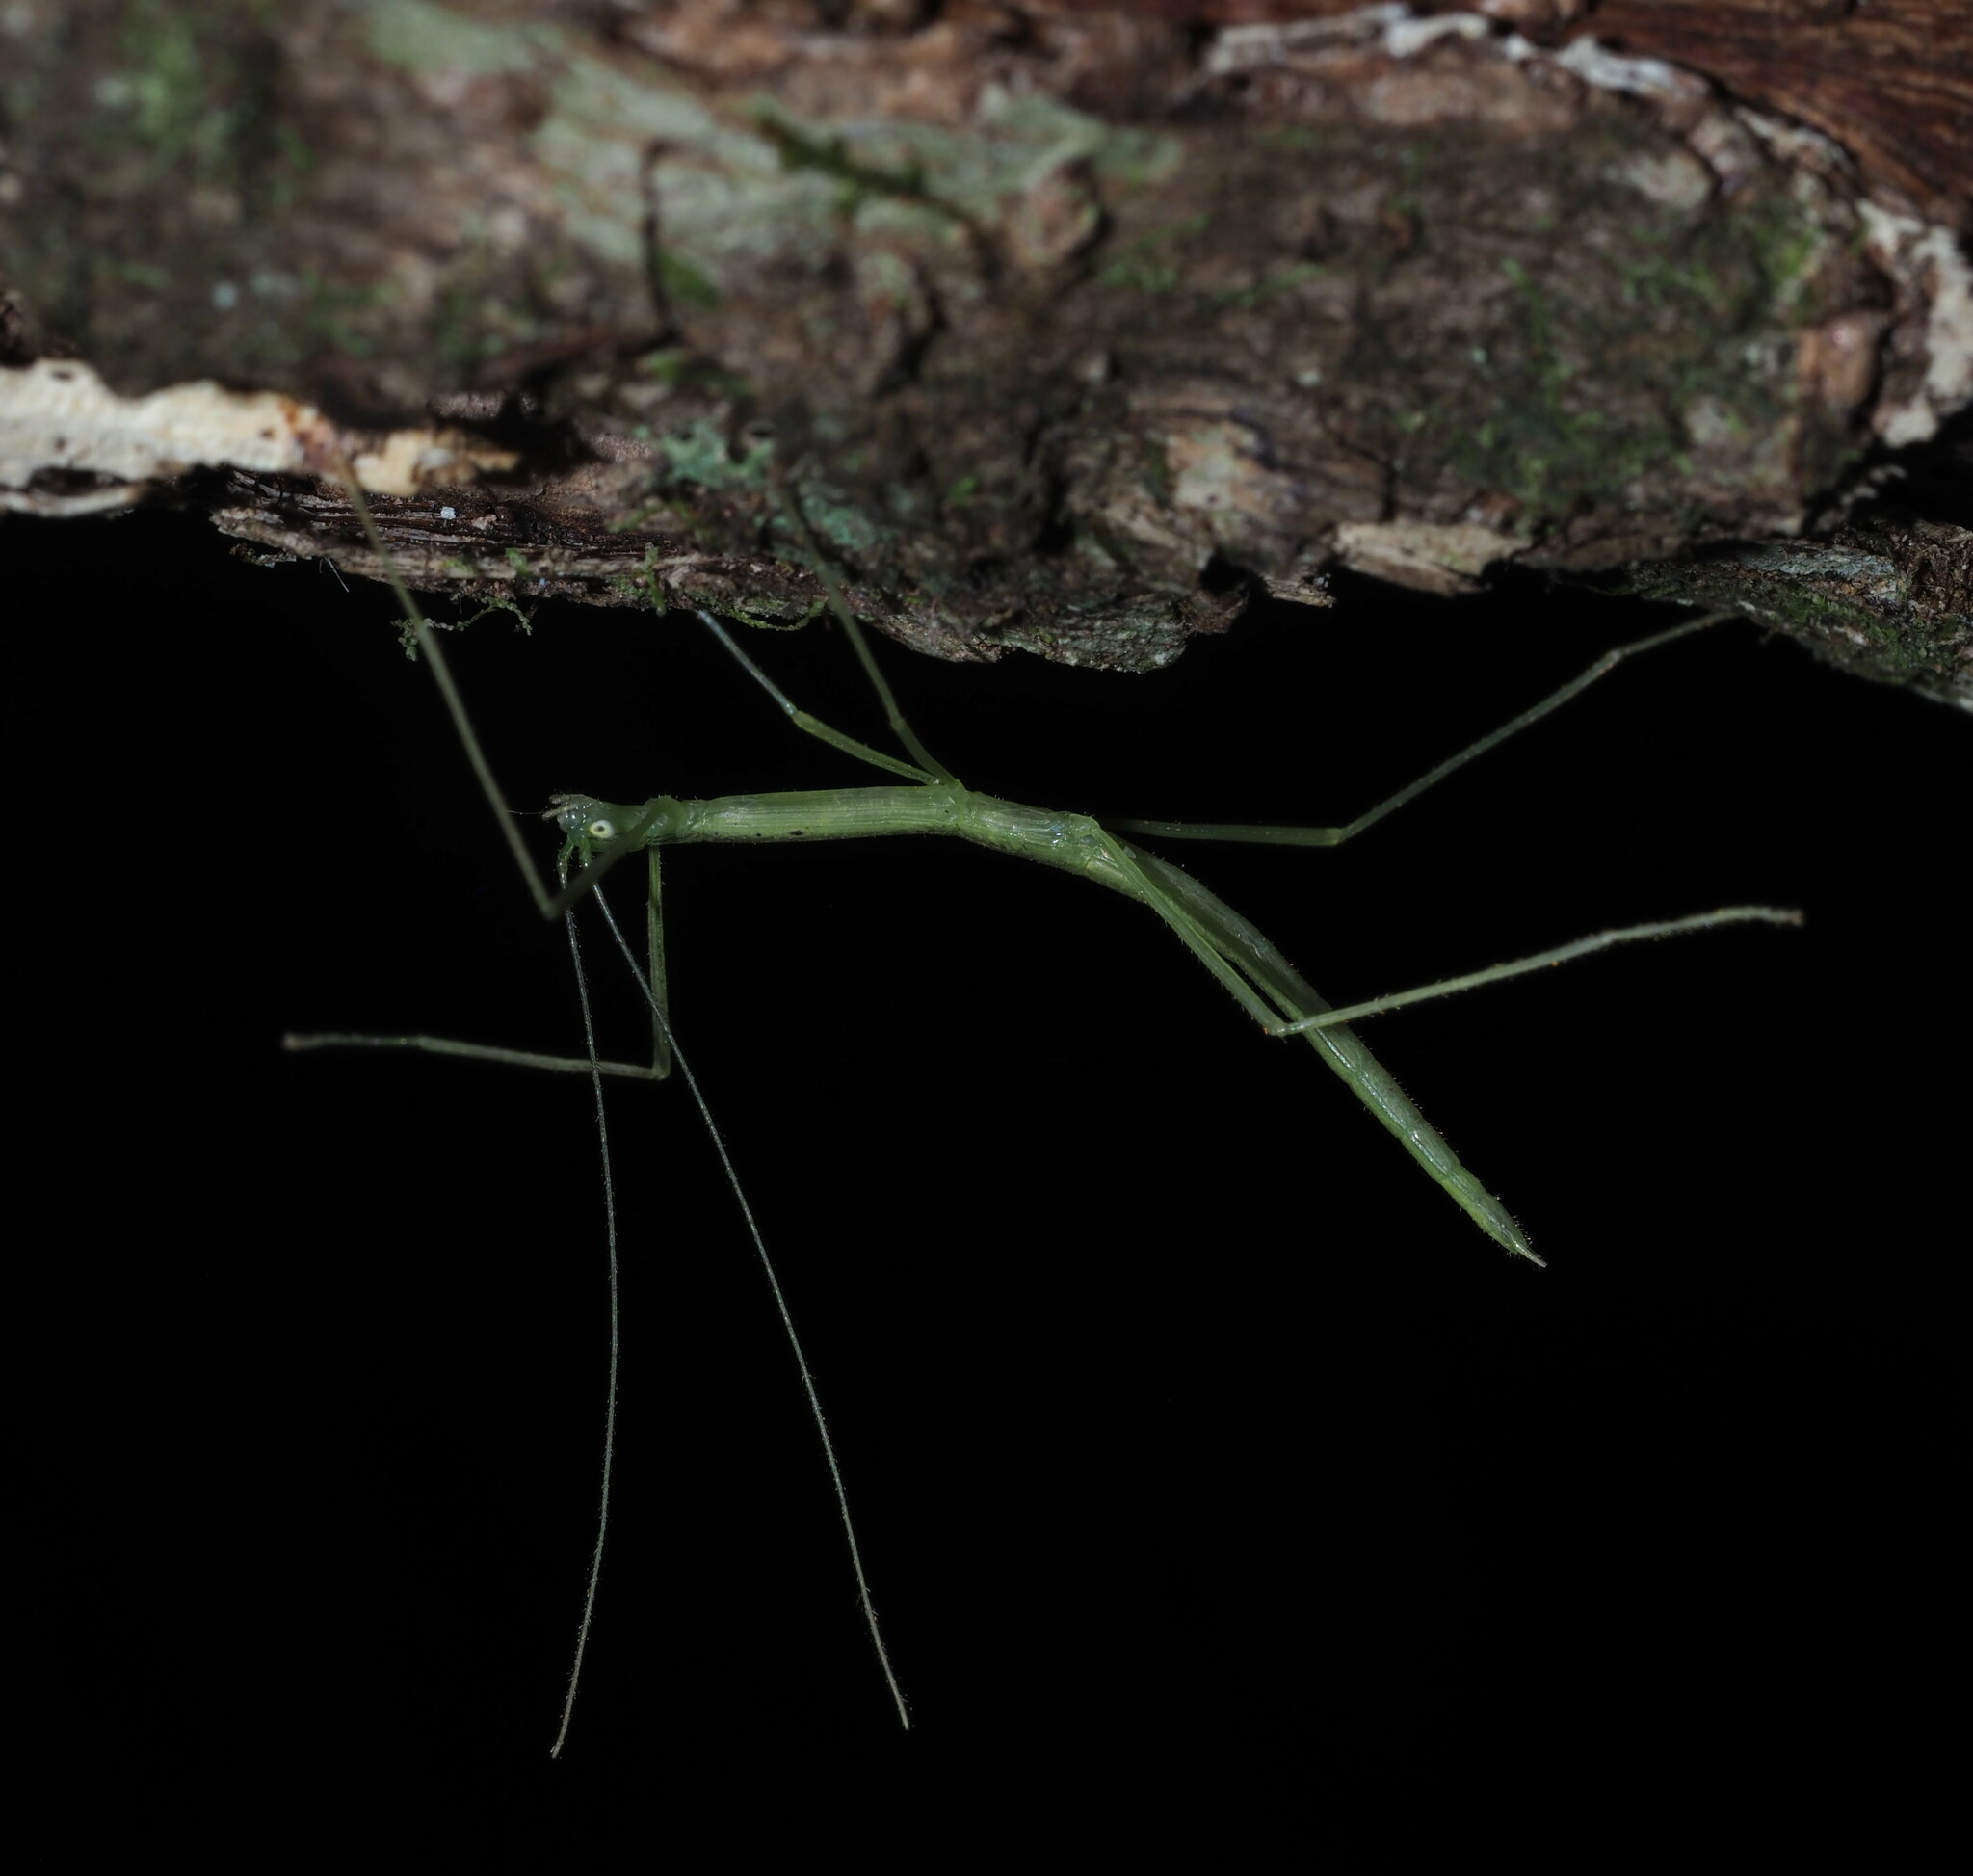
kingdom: Animalia
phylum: Arthropoda
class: Insecta
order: Phasmida
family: Lonchodidae
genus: Sipyloidea
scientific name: Sipyloidea sipylus
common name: Madagascan stick insect
